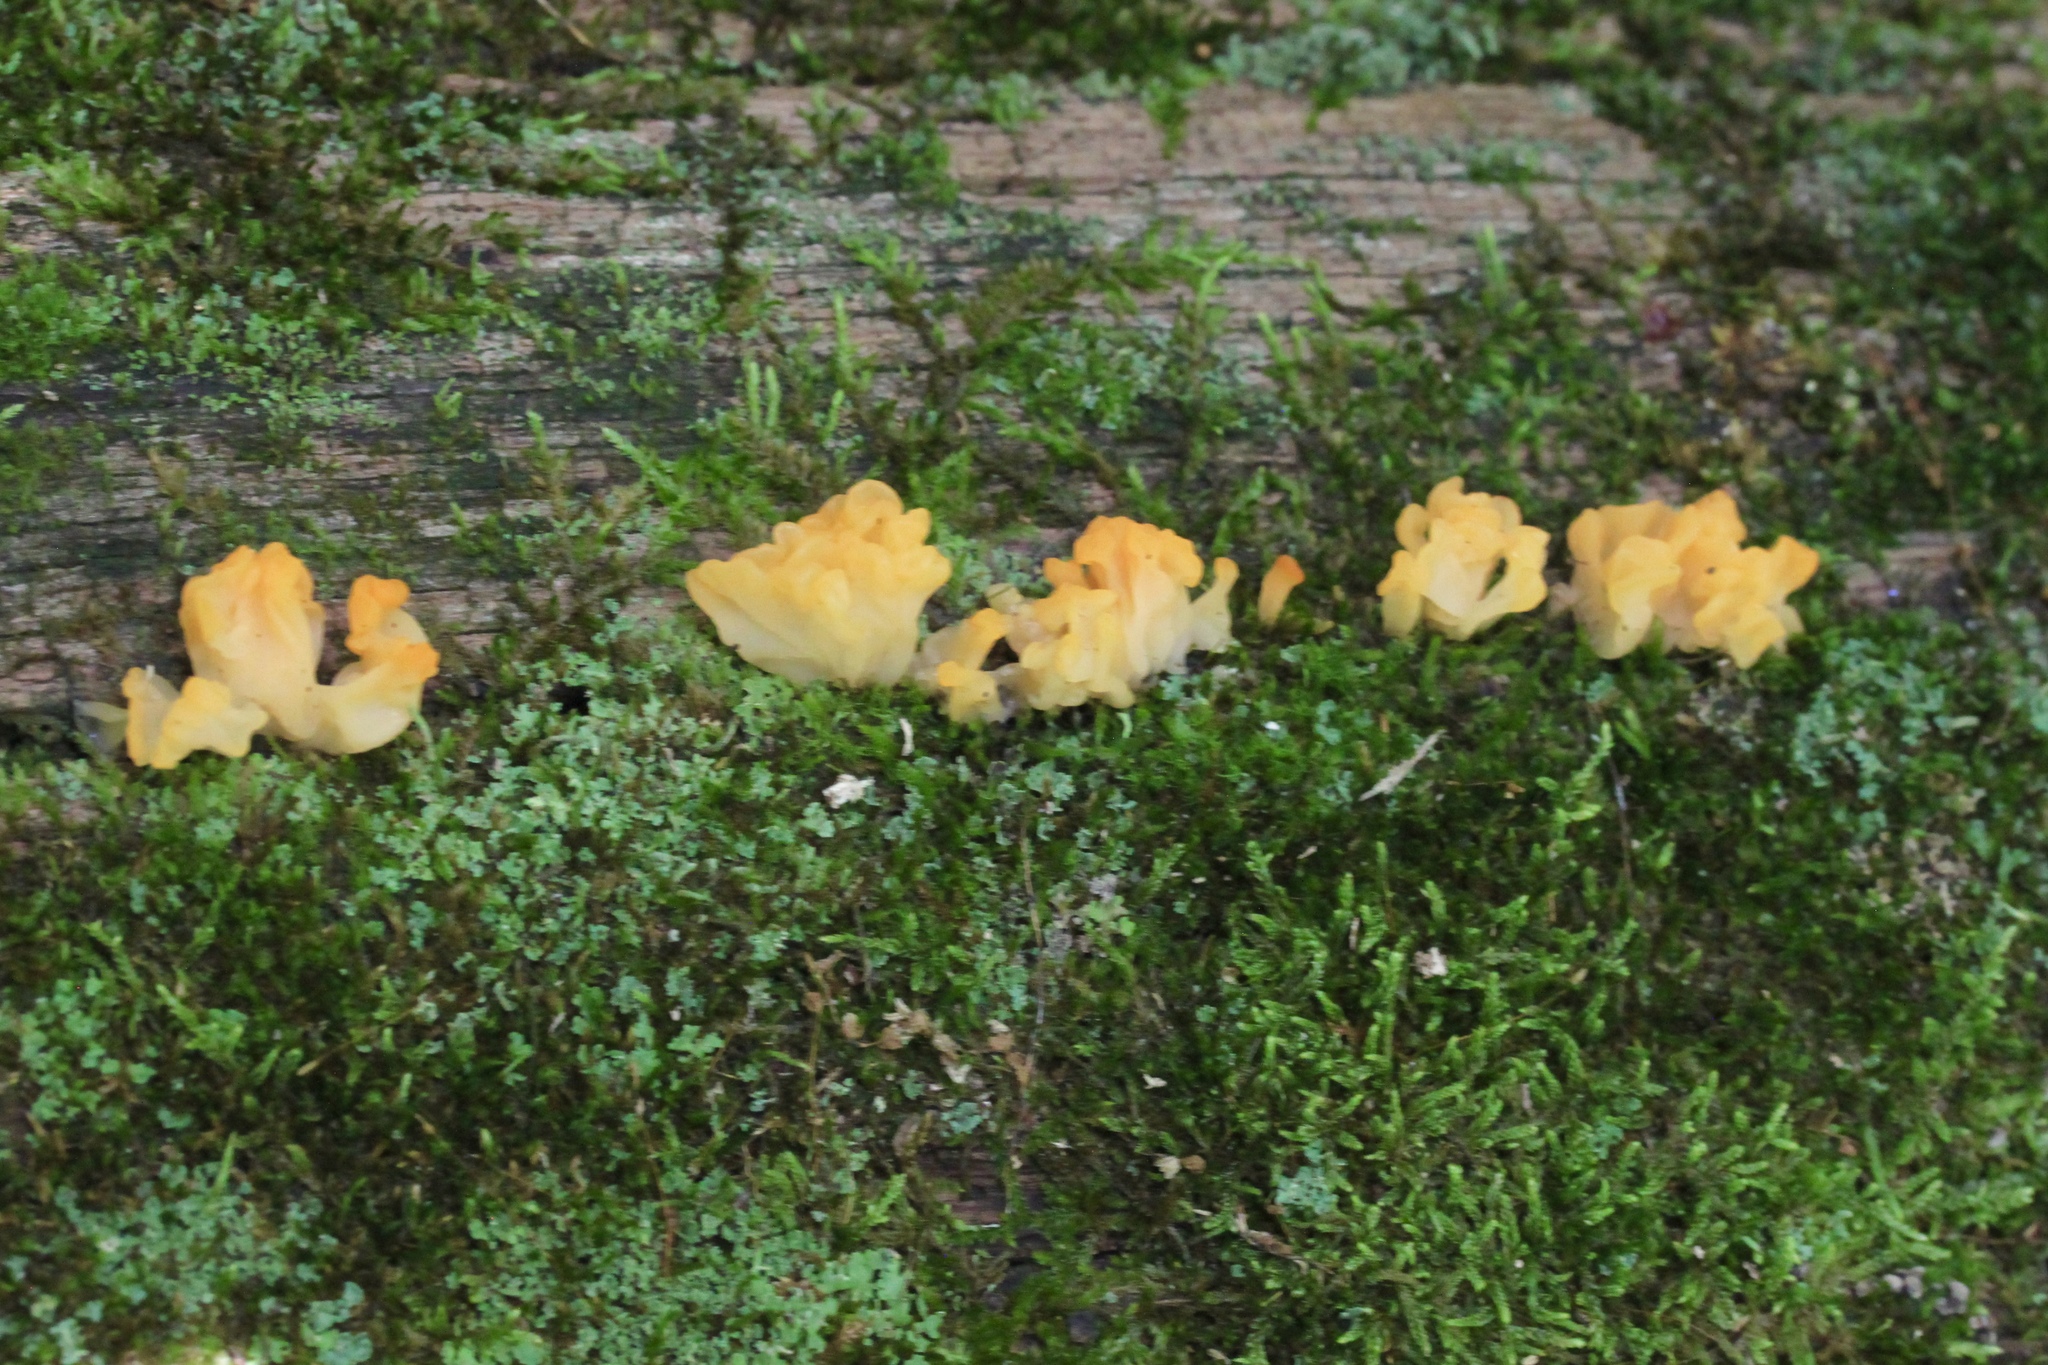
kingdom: Fungi
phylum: Basidiomycota
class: Dacrymycetes
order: Dacrymycetales
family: Dacrymycetaceae
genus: Dacrymyces
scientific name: Dacrymyces spathularius
